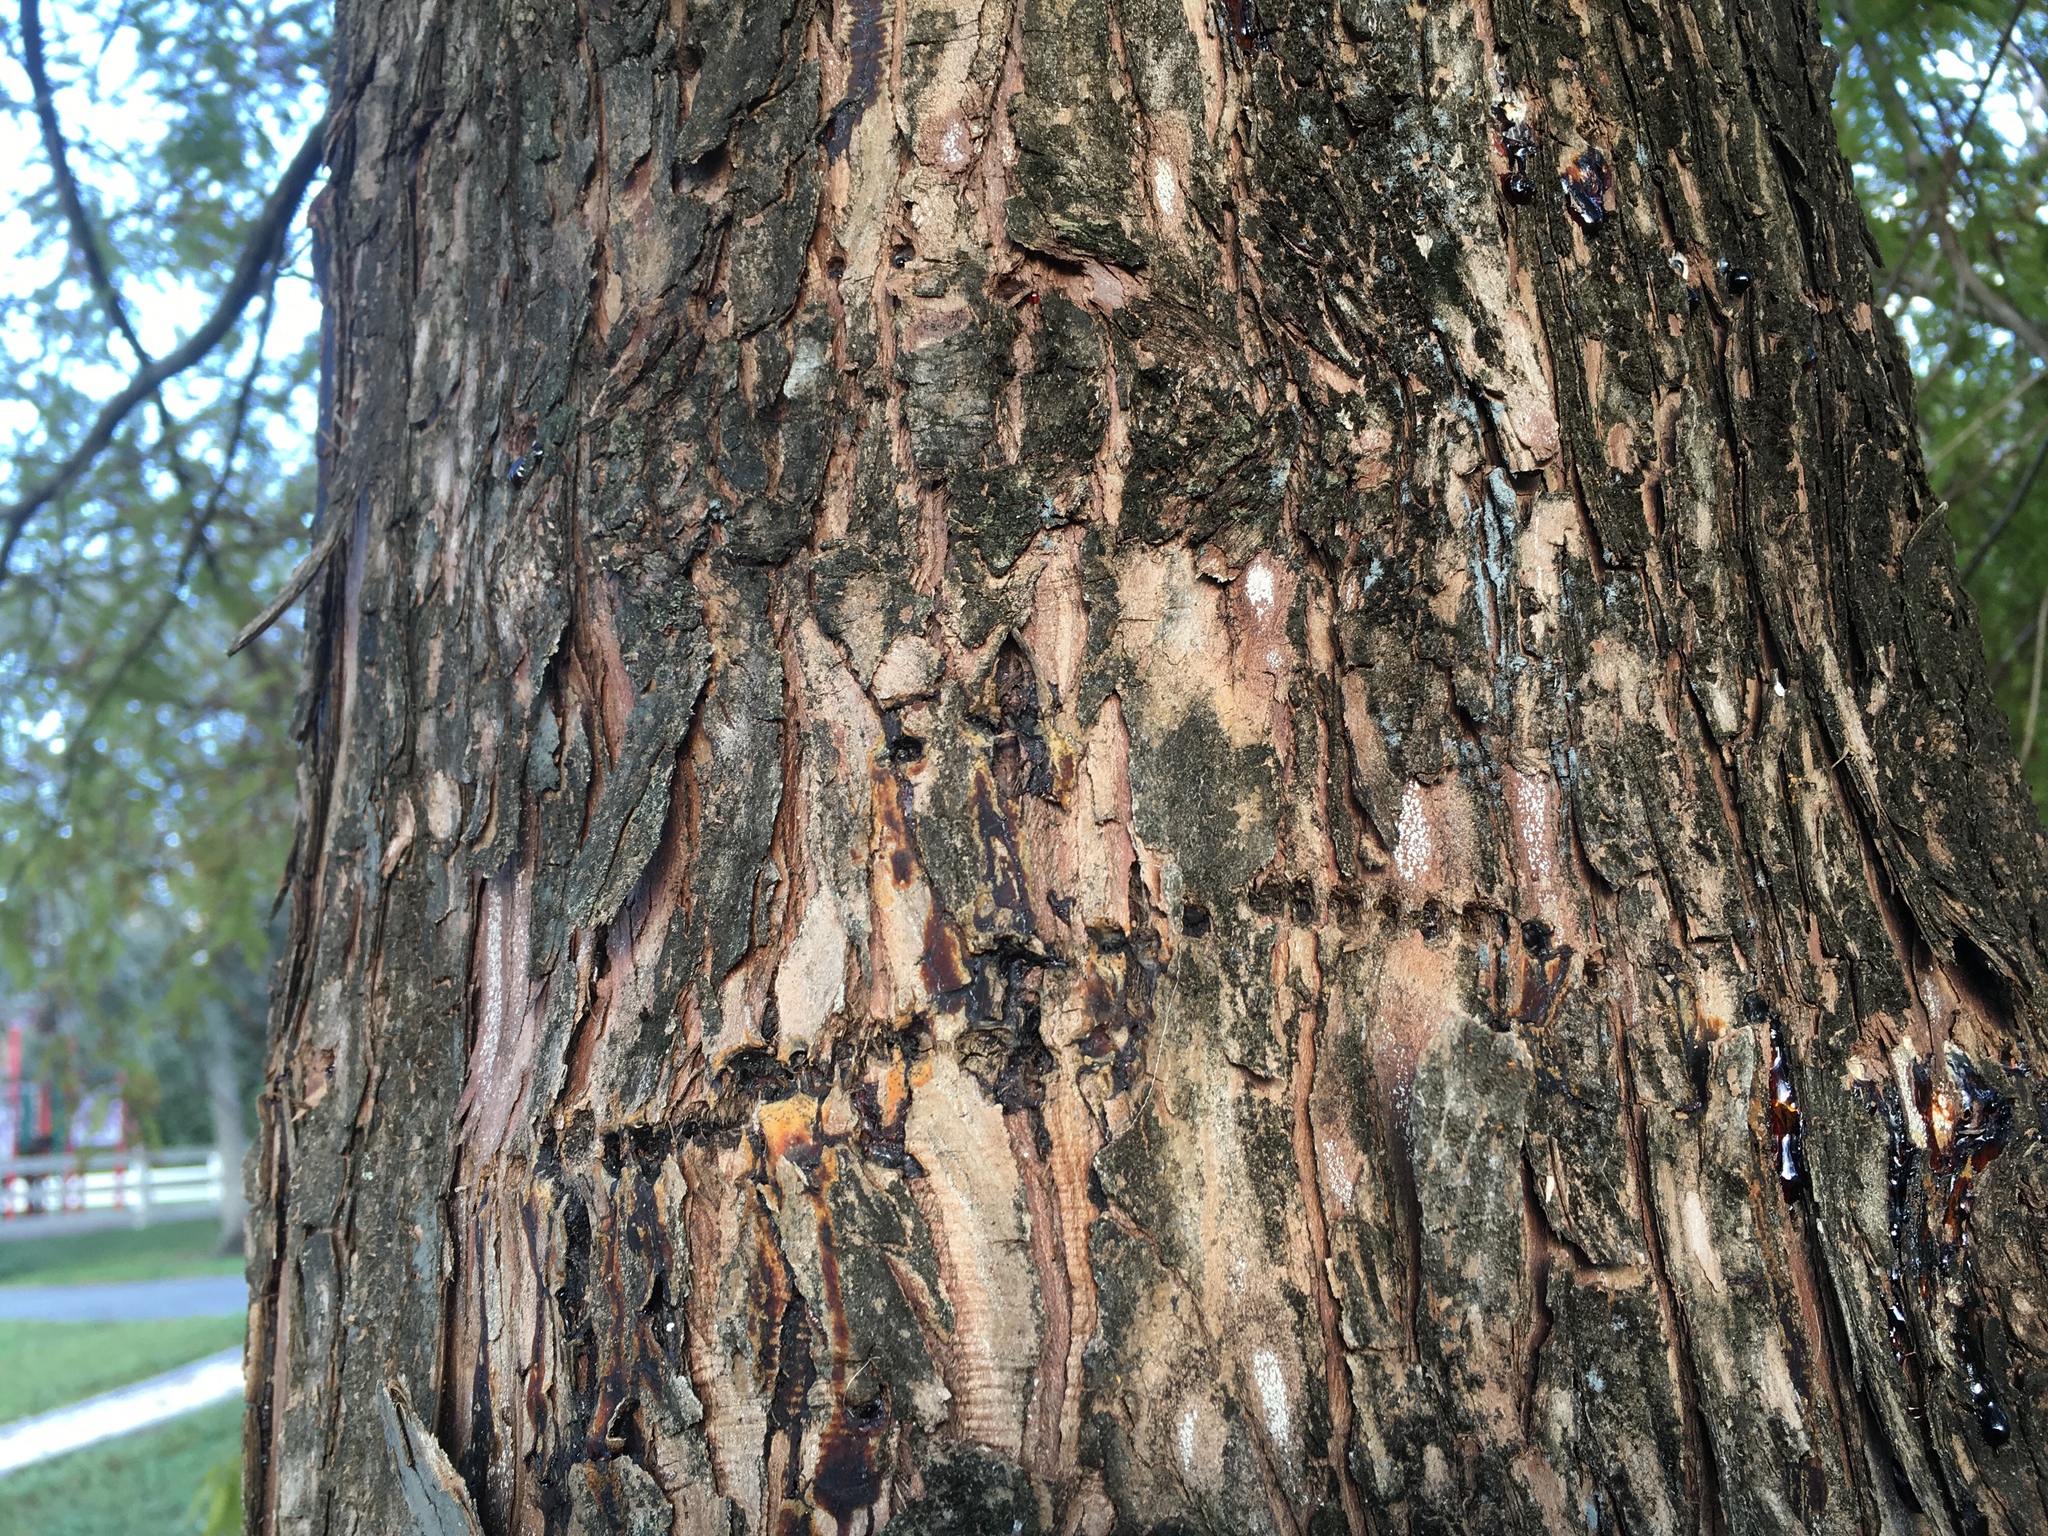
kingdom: Animalia
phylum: Chordata
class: Aves
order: Piciformes
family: Picidae
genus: Sphyrapicus
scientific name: Sphyrapicus varius
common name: Yellow-bellied sapsucker
